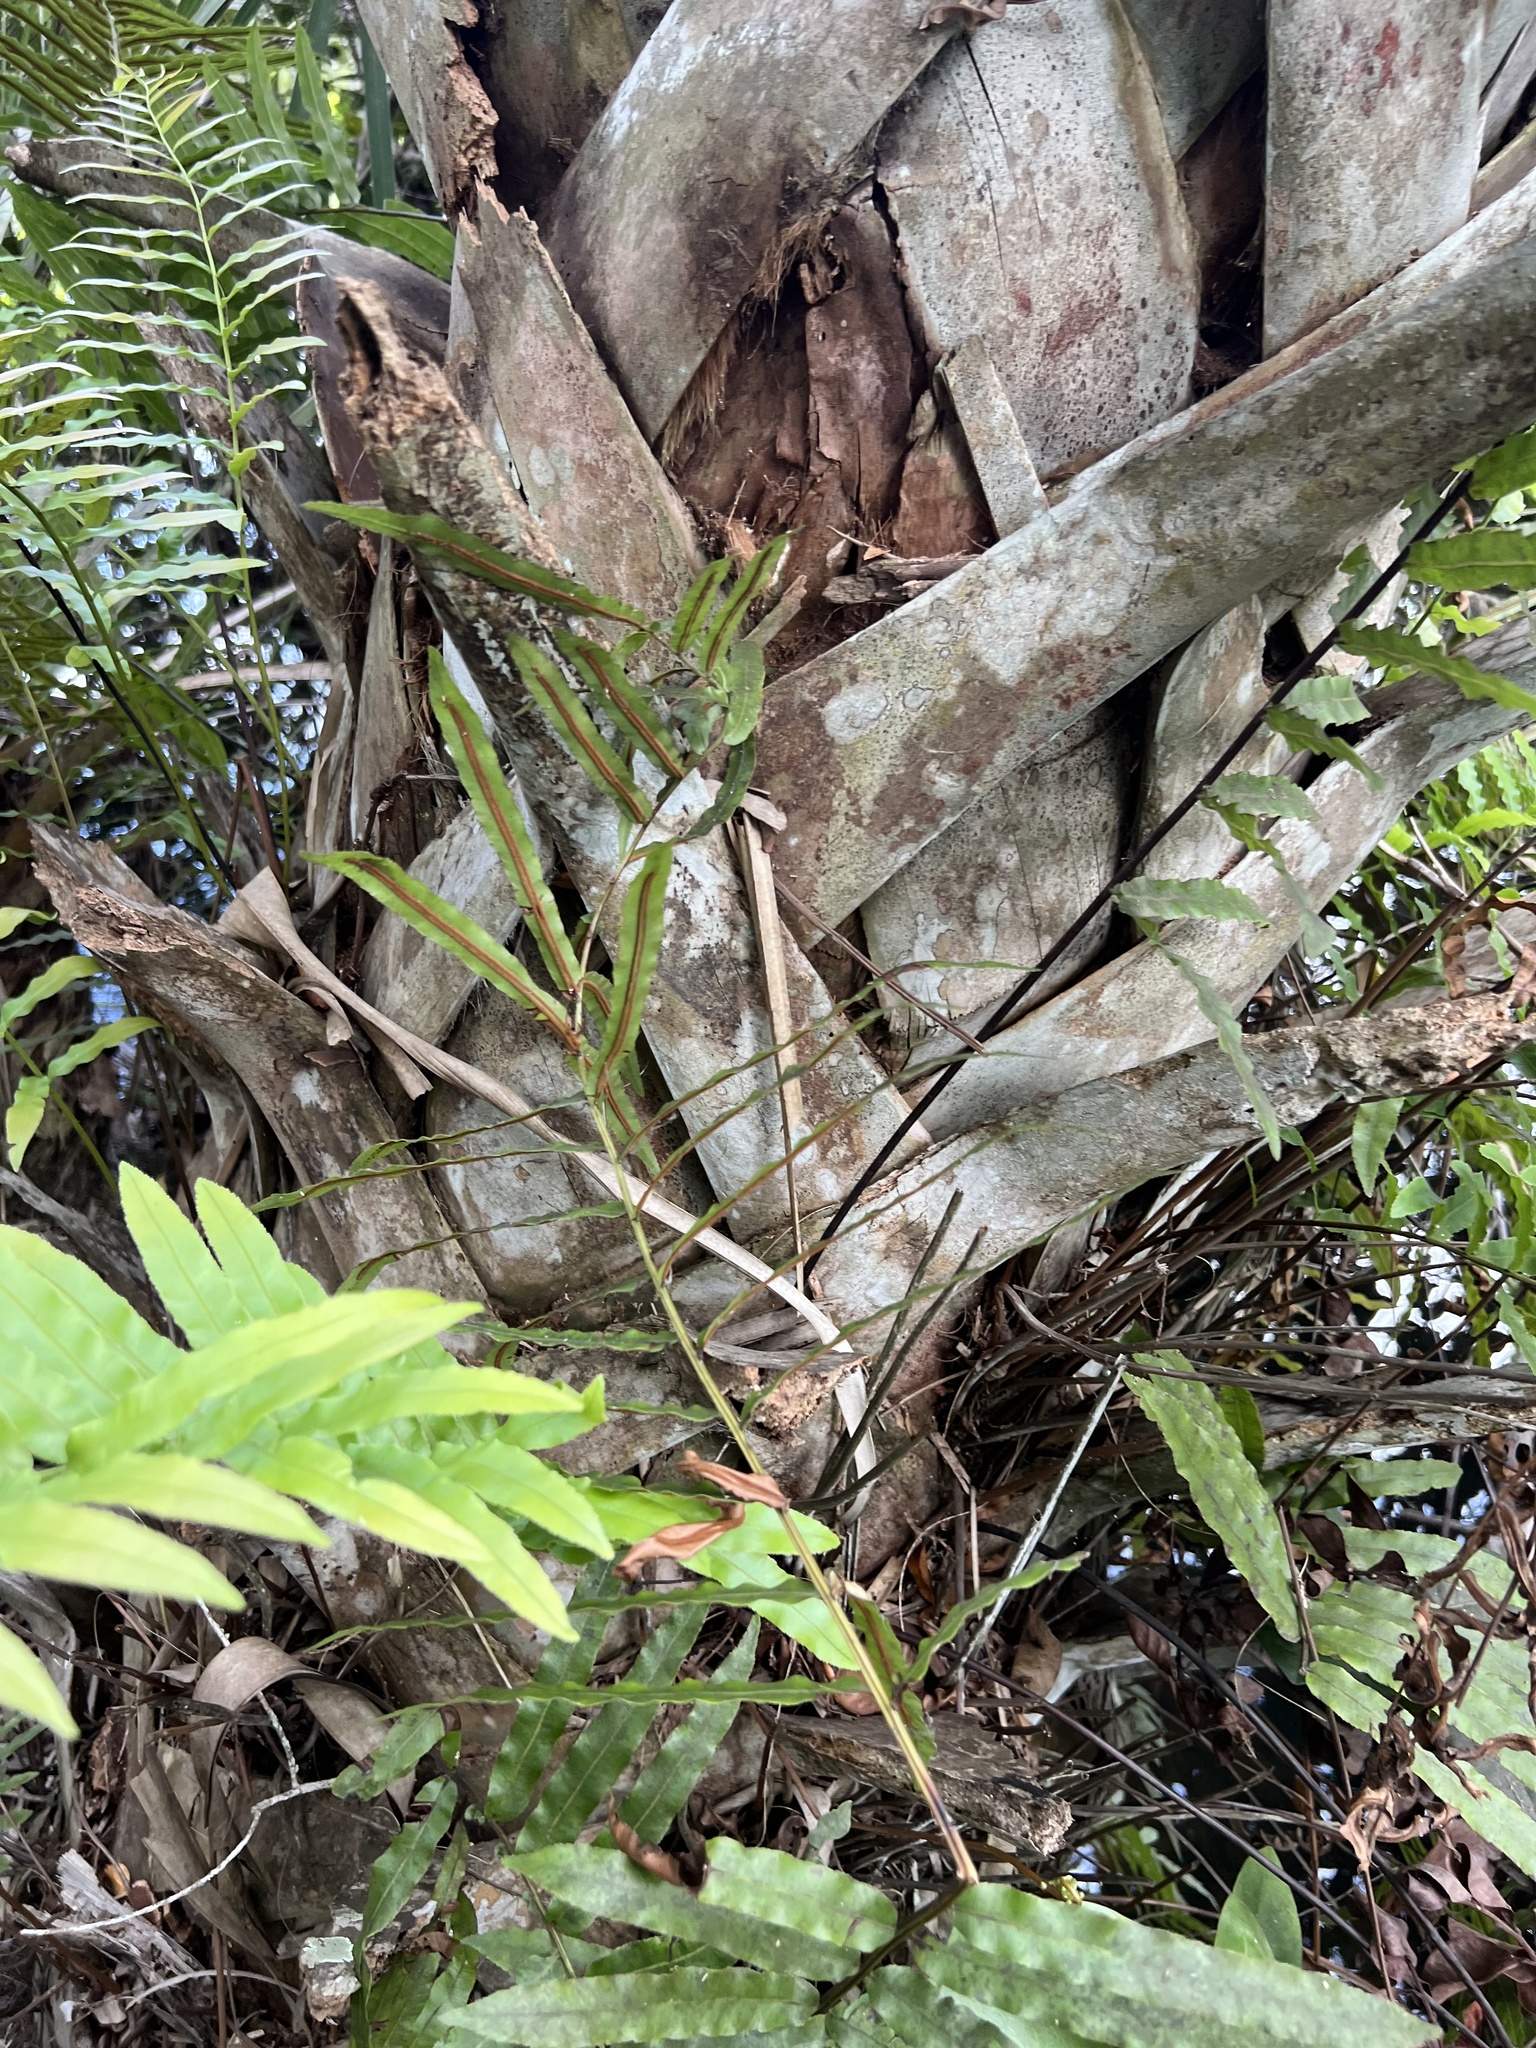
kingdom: Plantae
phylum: Tracheophyta
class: Polypodiopsida
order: Polypodiales
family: Blechnaceae
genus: Telmatoblechnum
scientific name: Telmatoblechnum serrulatum
